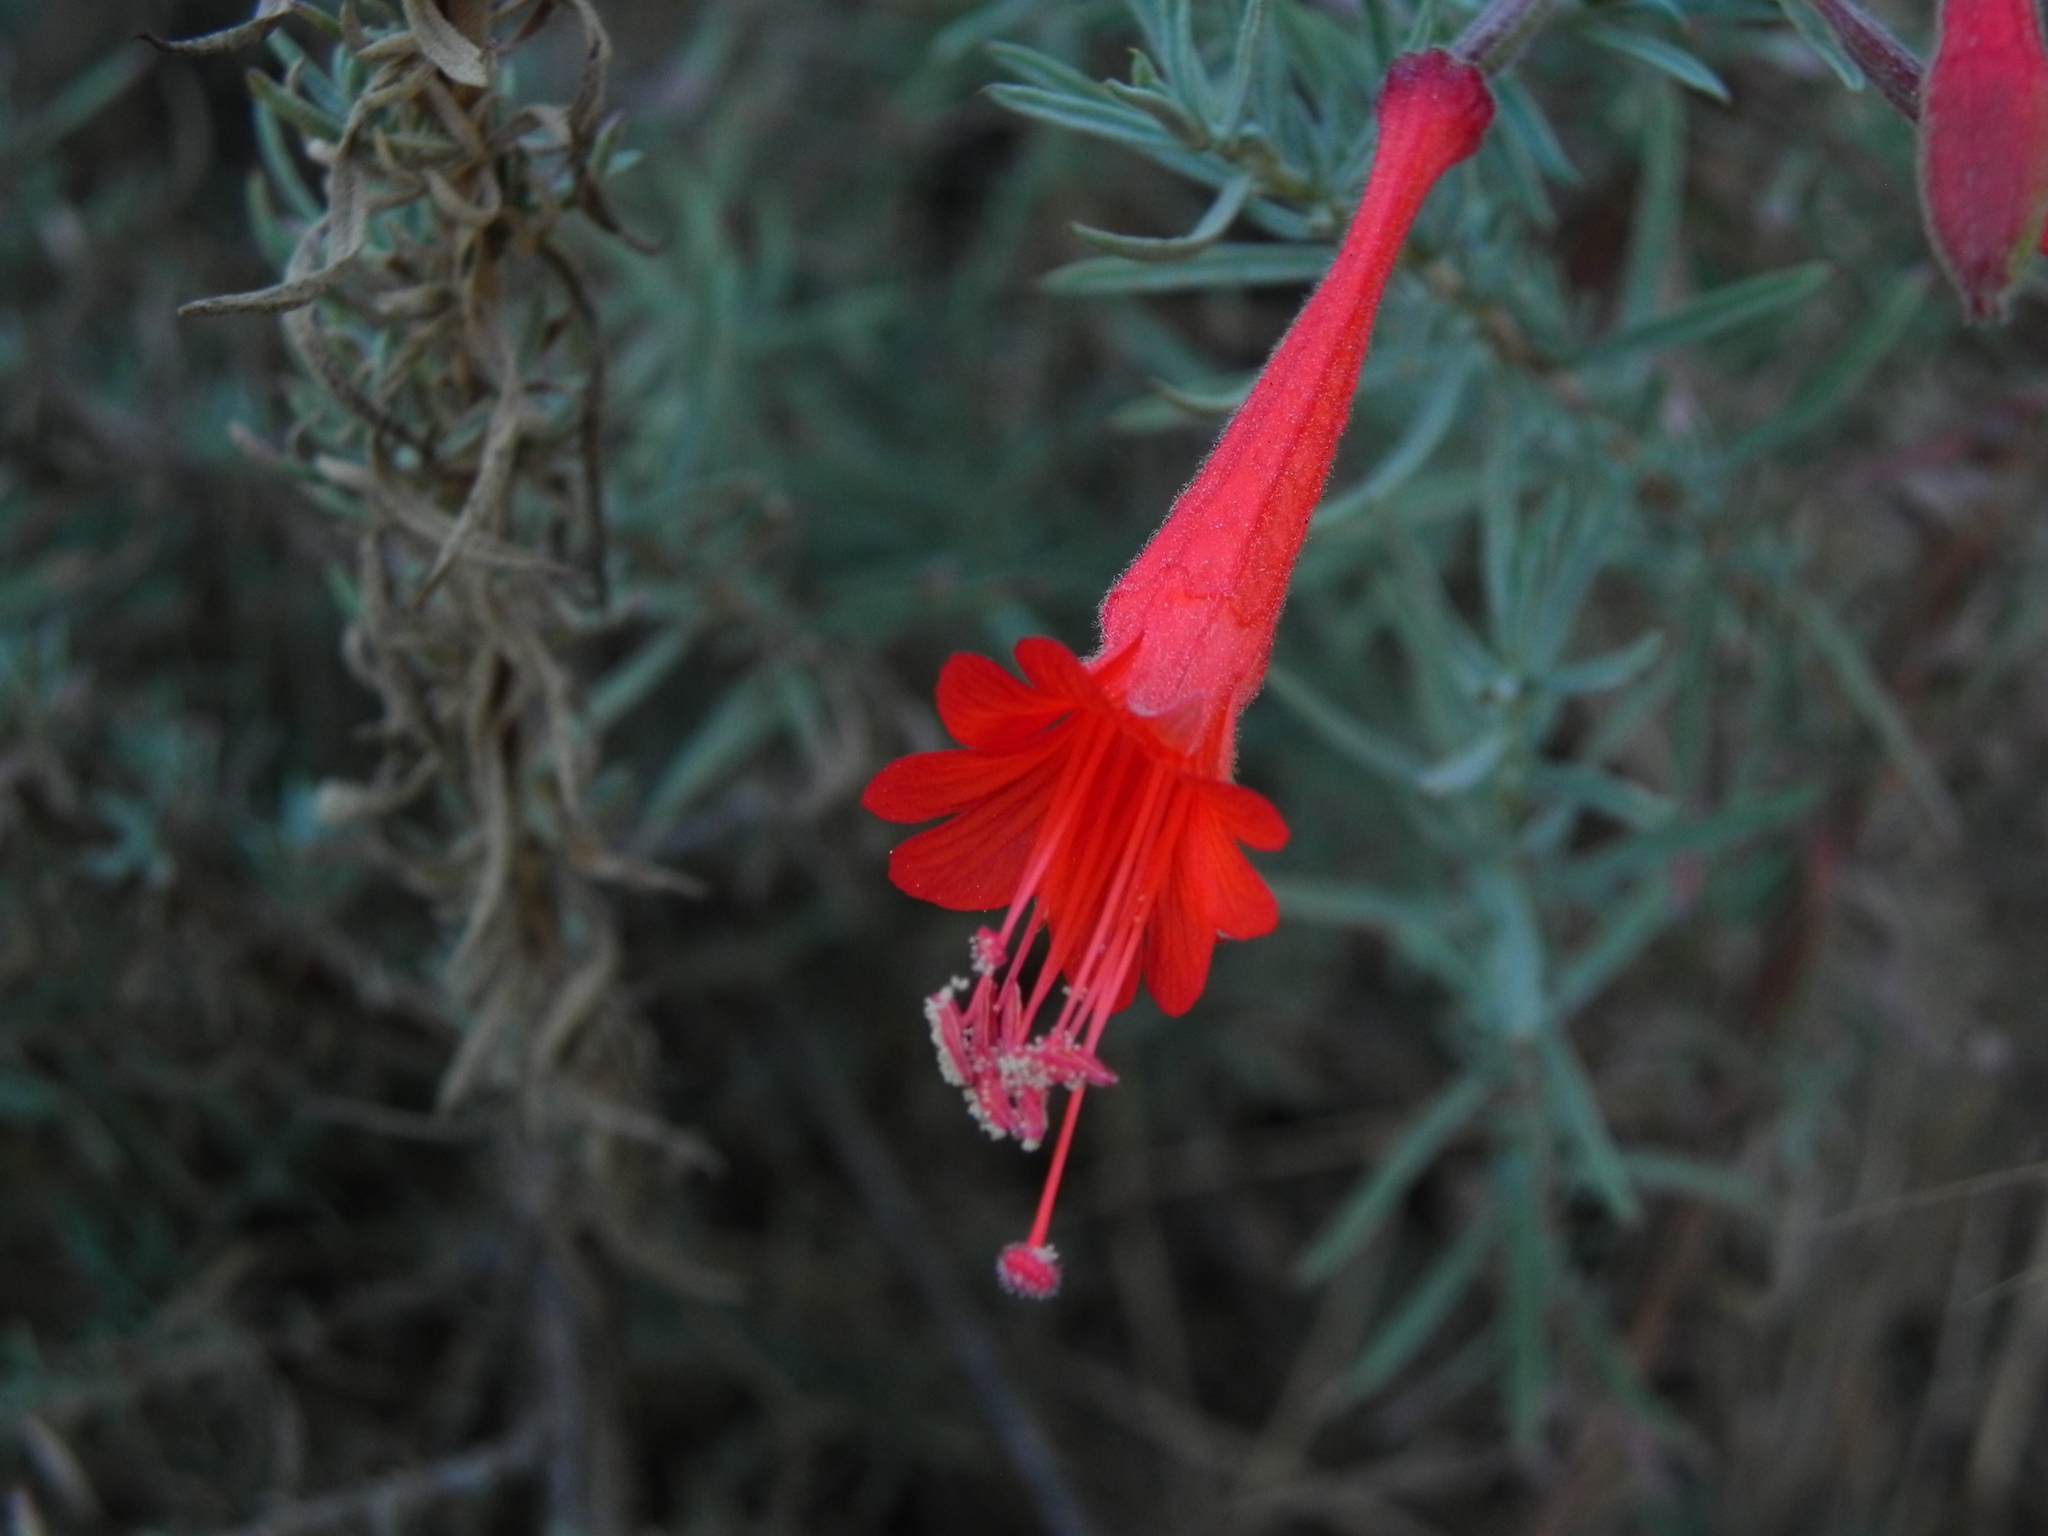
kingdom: Plantae
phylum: Tracheophyta
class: Magnoliopsida
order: Myrtales
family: Onagraceae
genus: Epilobium
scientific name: Epilobium canum
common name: California-fuchsia
